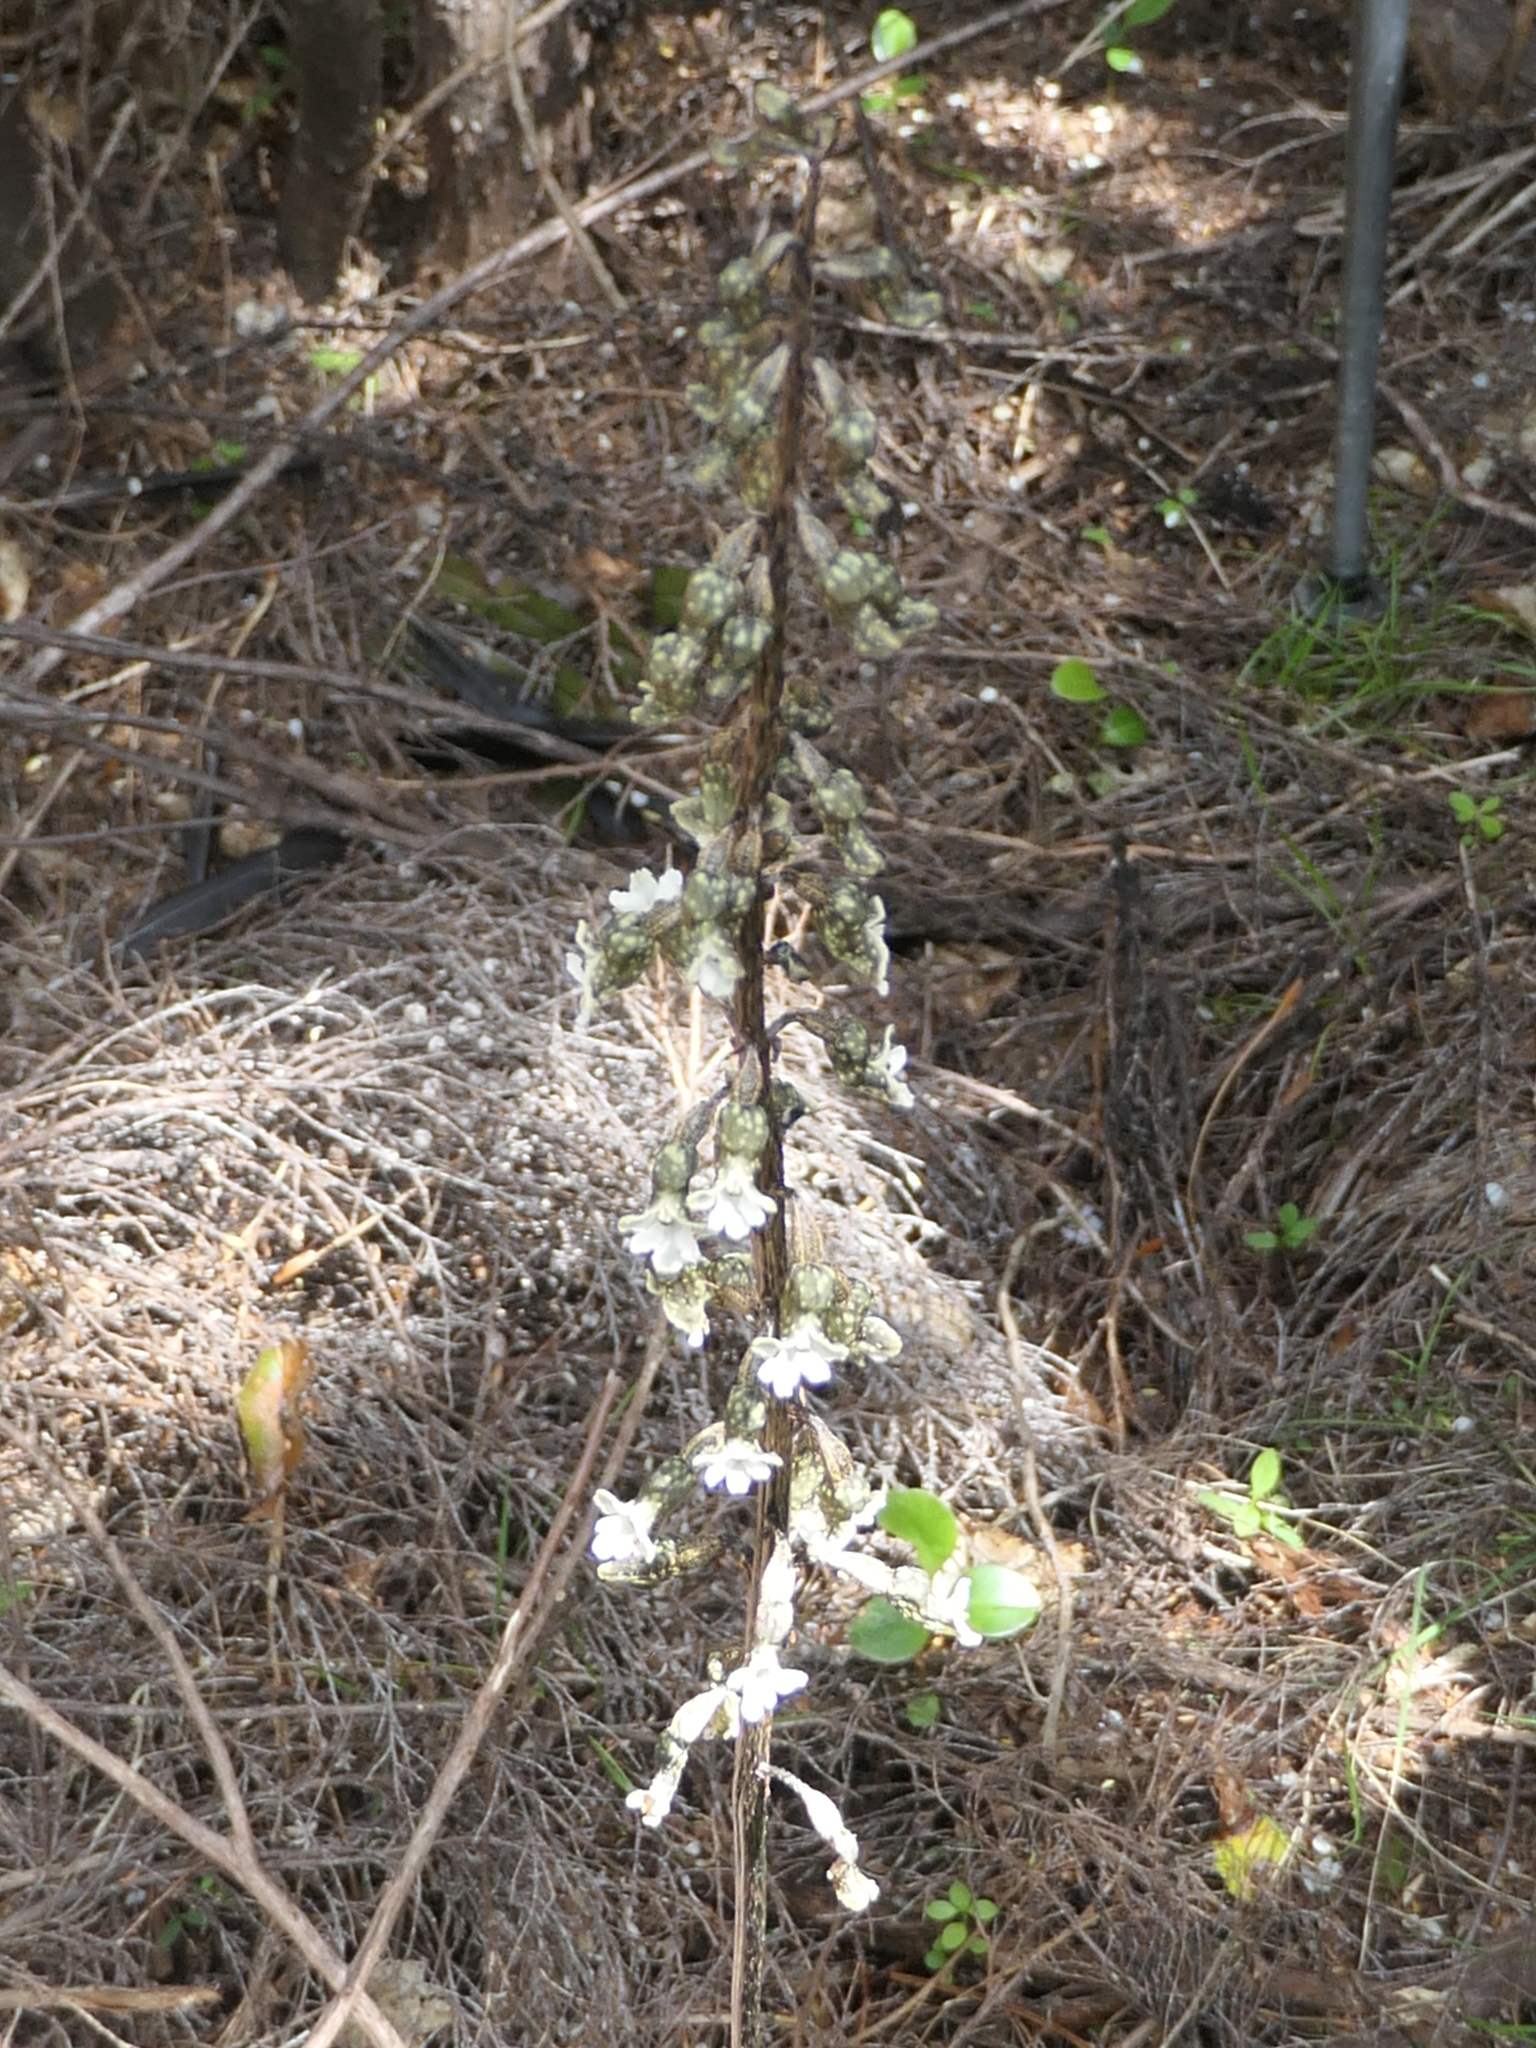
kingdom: Plantae
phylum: Tracheophyta
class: Liliopsida
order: Asparagales
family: Orchidaceae
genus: Gastrodia
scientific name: Gastrodia cunninghamii
